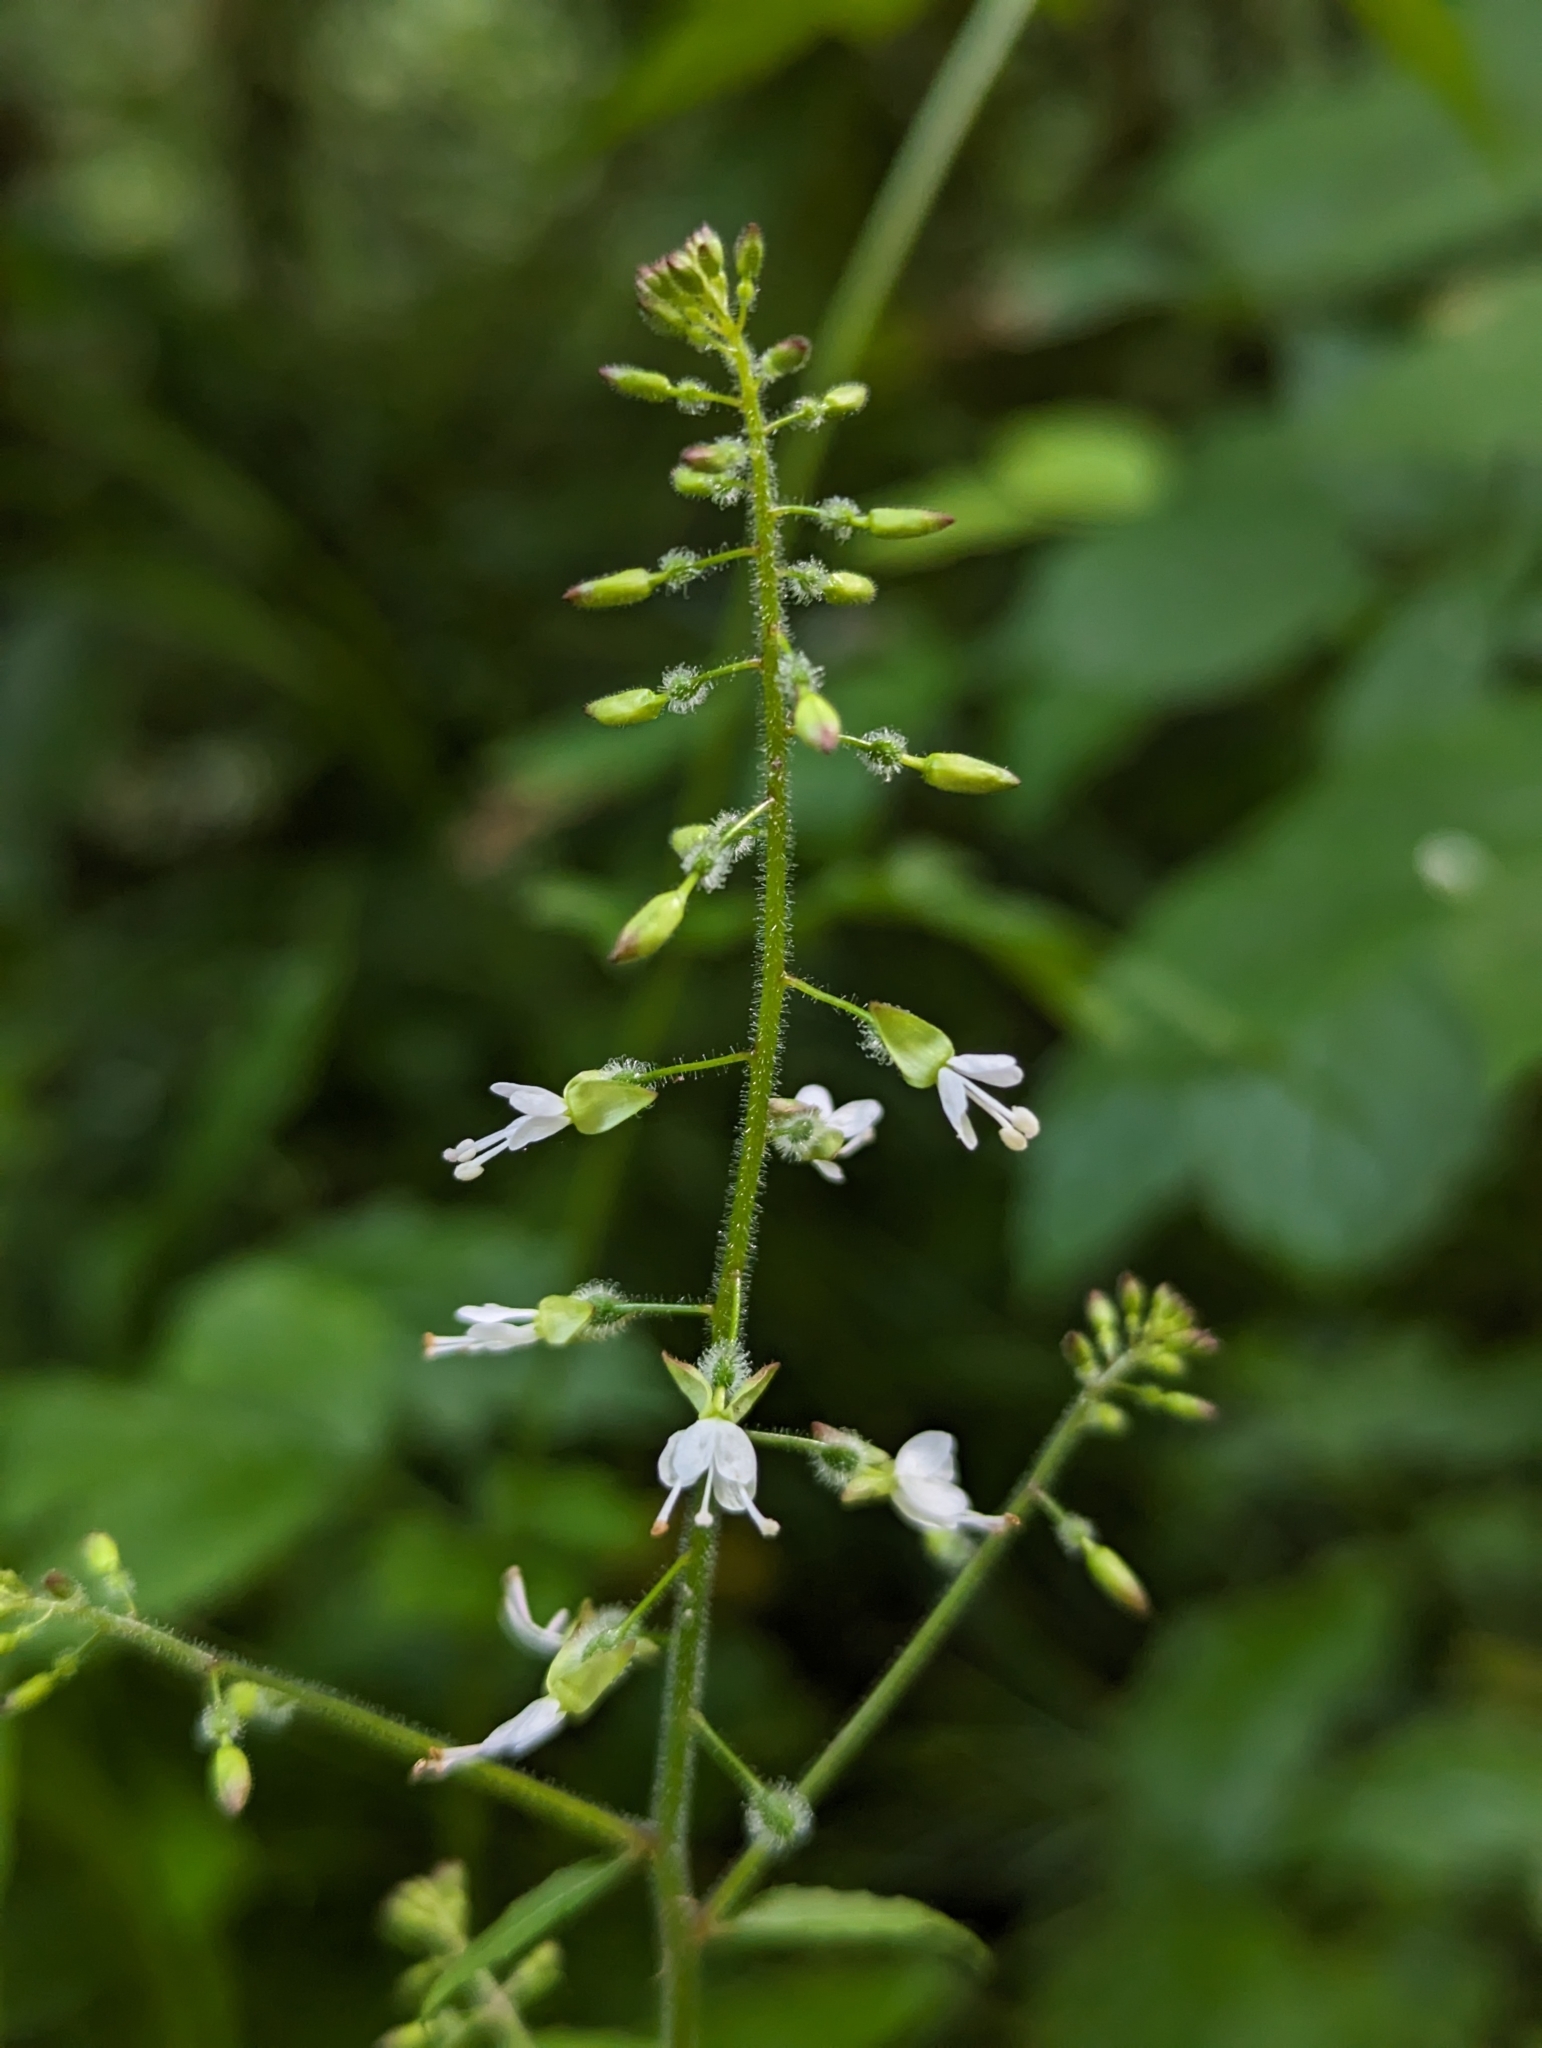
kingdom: Plantae
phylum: Tracheophyta
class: Magnoliopsida
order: Myrtales
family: Onagraceae
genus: Circaea
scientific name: Circaea lutetiana
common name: Enchanter's-nightshade
